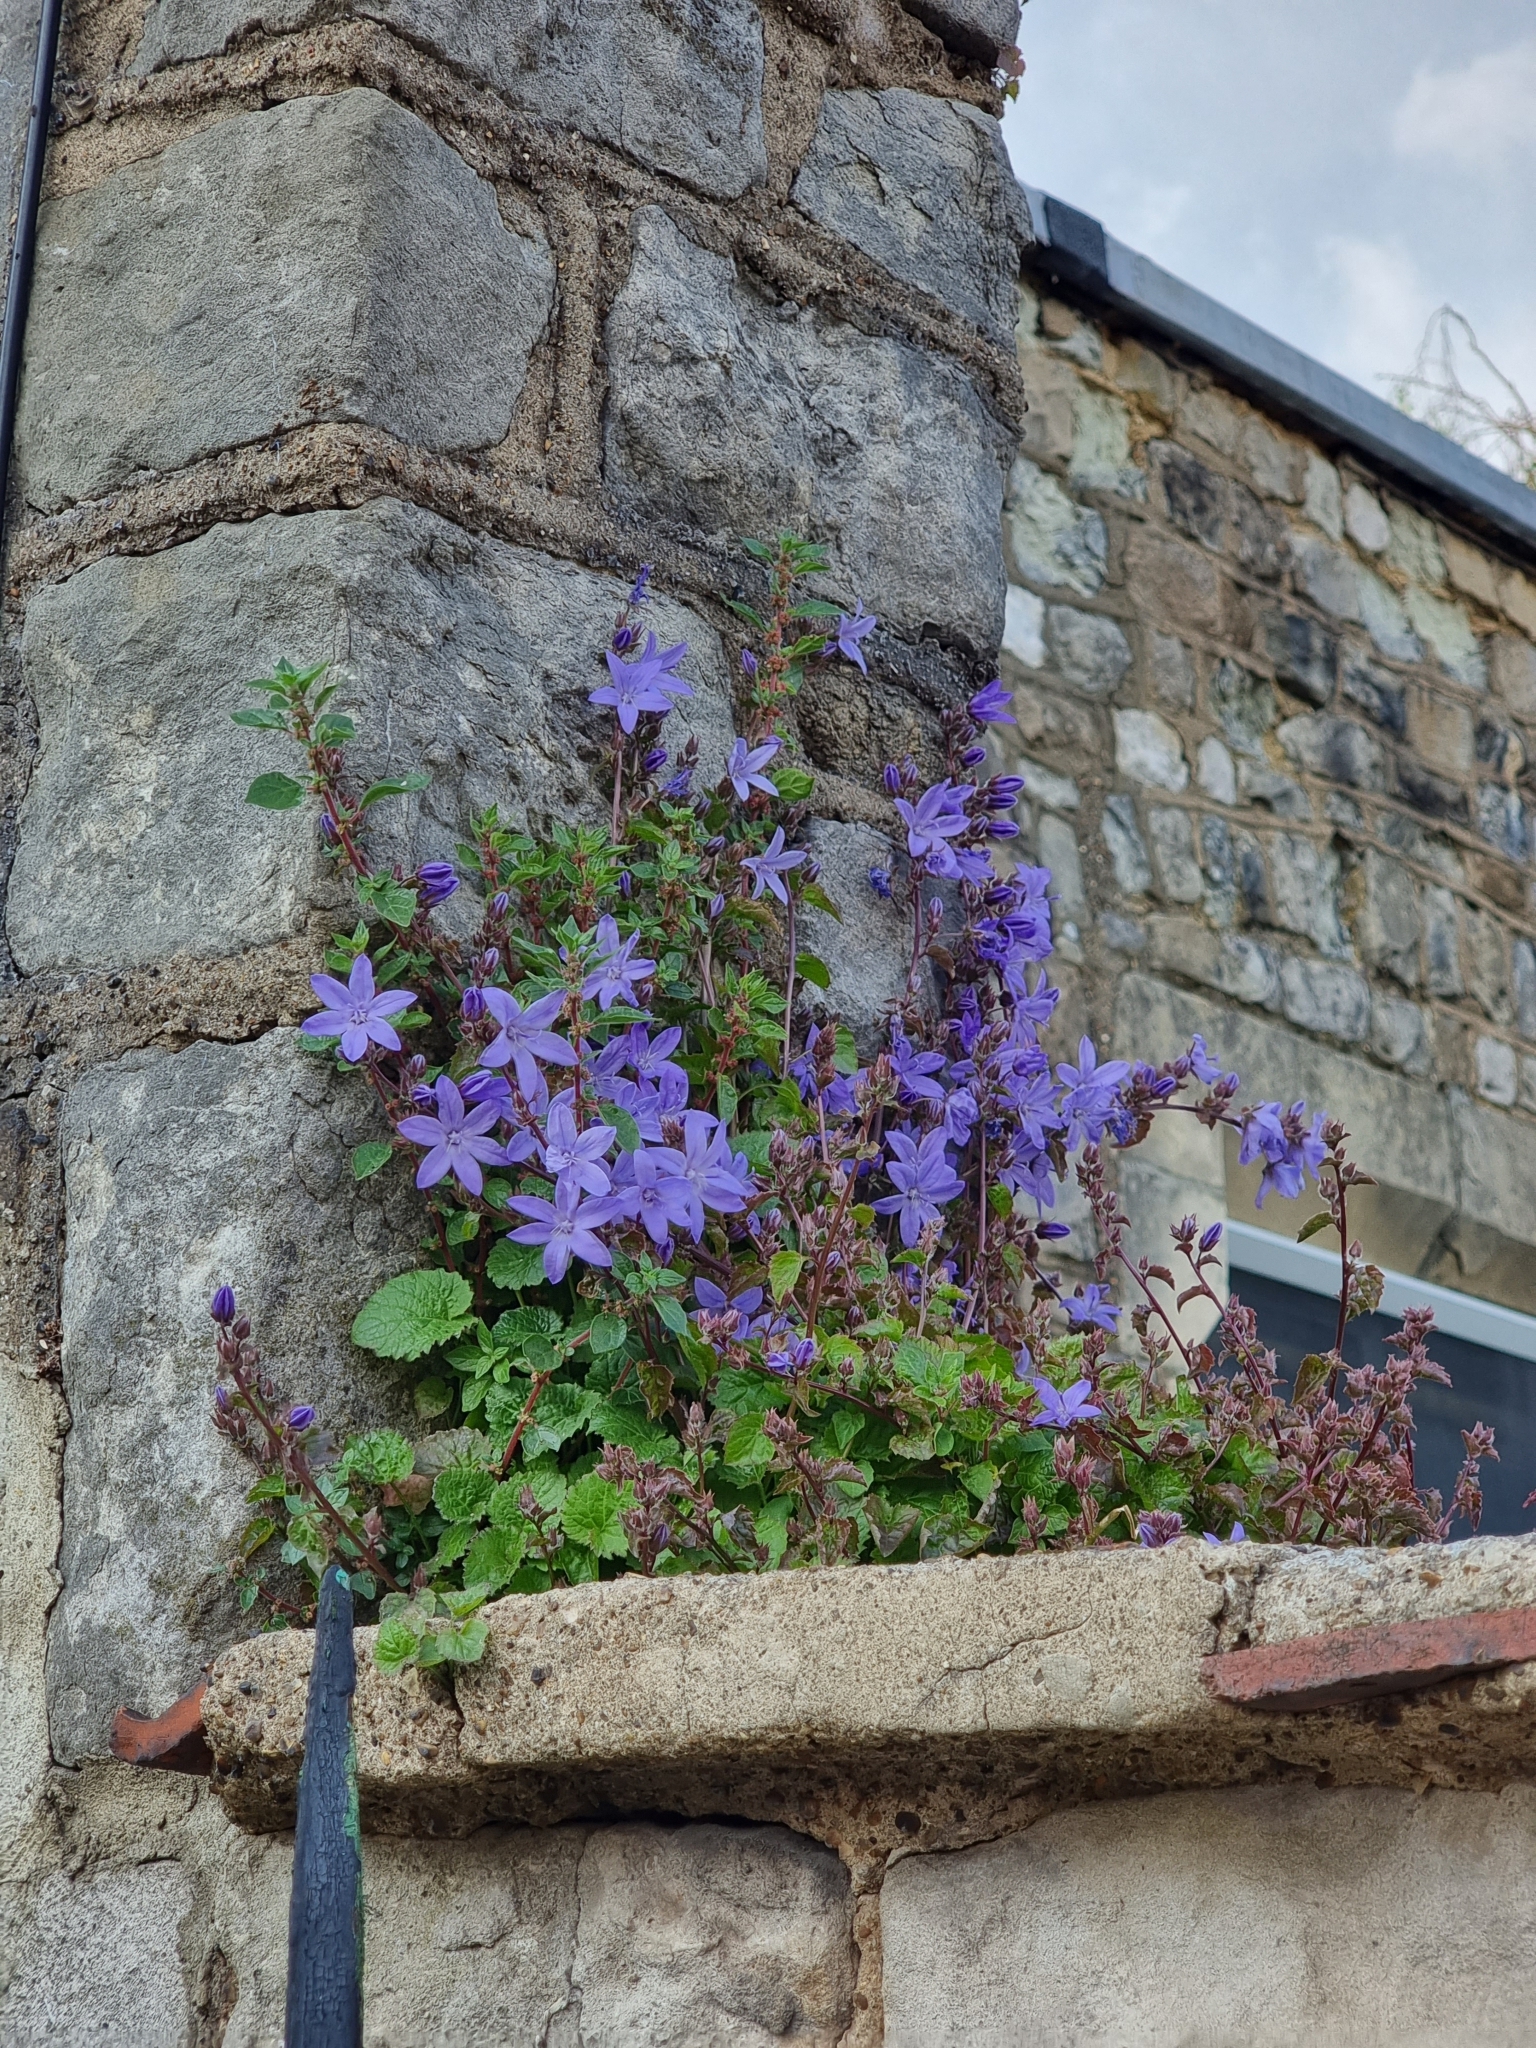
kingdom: Plantae
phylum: Tracheophyta
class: Magnoliopsida
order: Asterales
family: Campanulaceae
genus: Campanula
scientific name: Campanula poscharskyana
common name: Trailing bellflower
